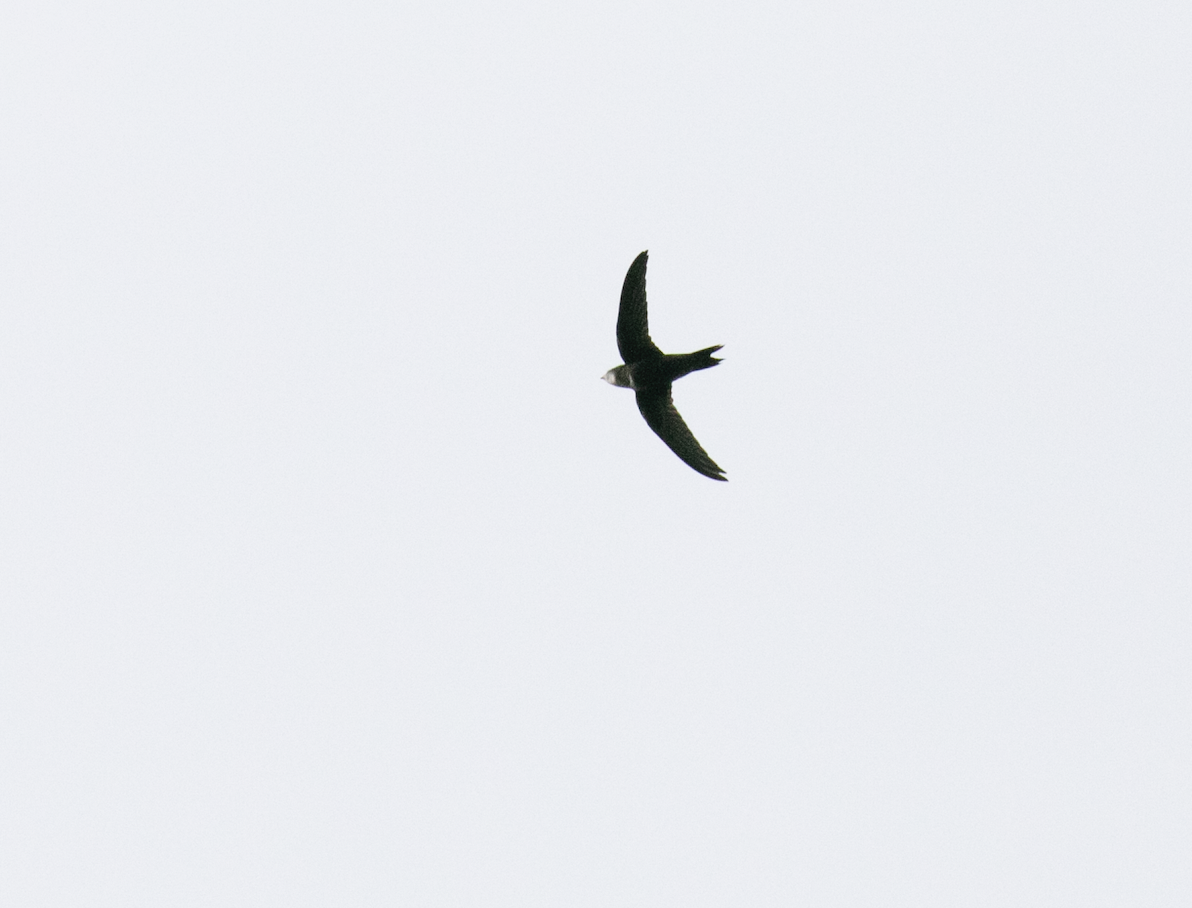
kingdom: Animalia
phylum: Chordata
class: Aves
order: Apodiformes
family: Apodidae
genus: Apus
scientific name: Apus apus
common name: Common swift
